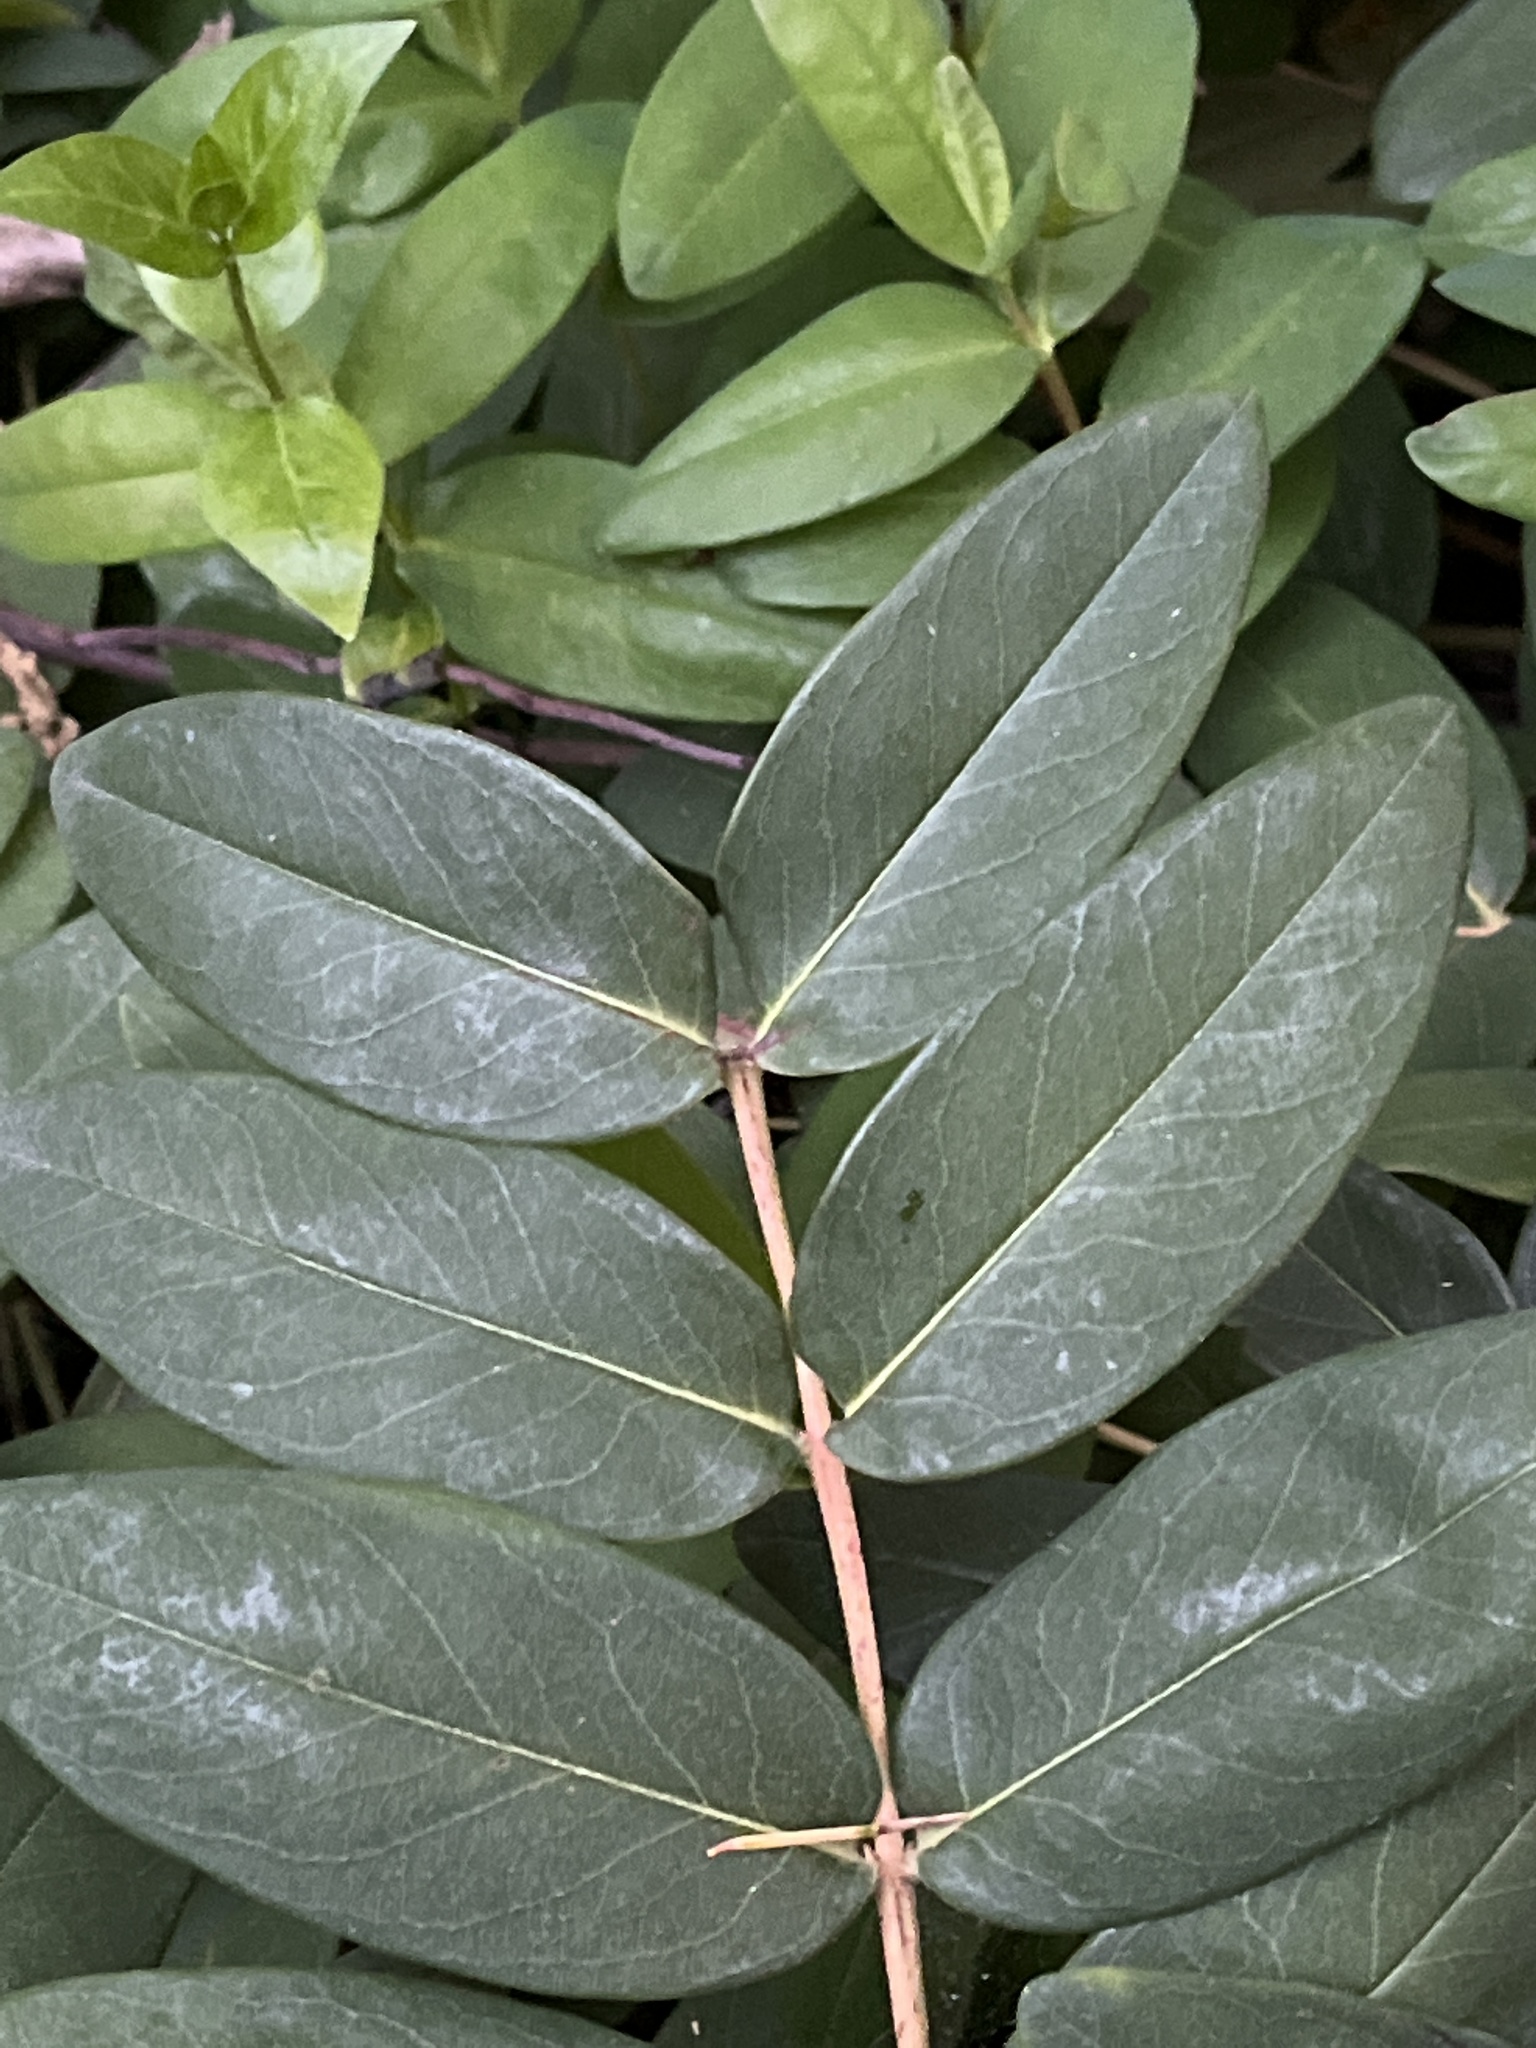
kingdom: Plantae
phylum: Tracheophyta
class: Magnoliopsida
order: Malpighiales
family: Hypericaceae
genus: Hypericum
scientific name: Hypericum calycinum
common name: Rose-of-sharon
